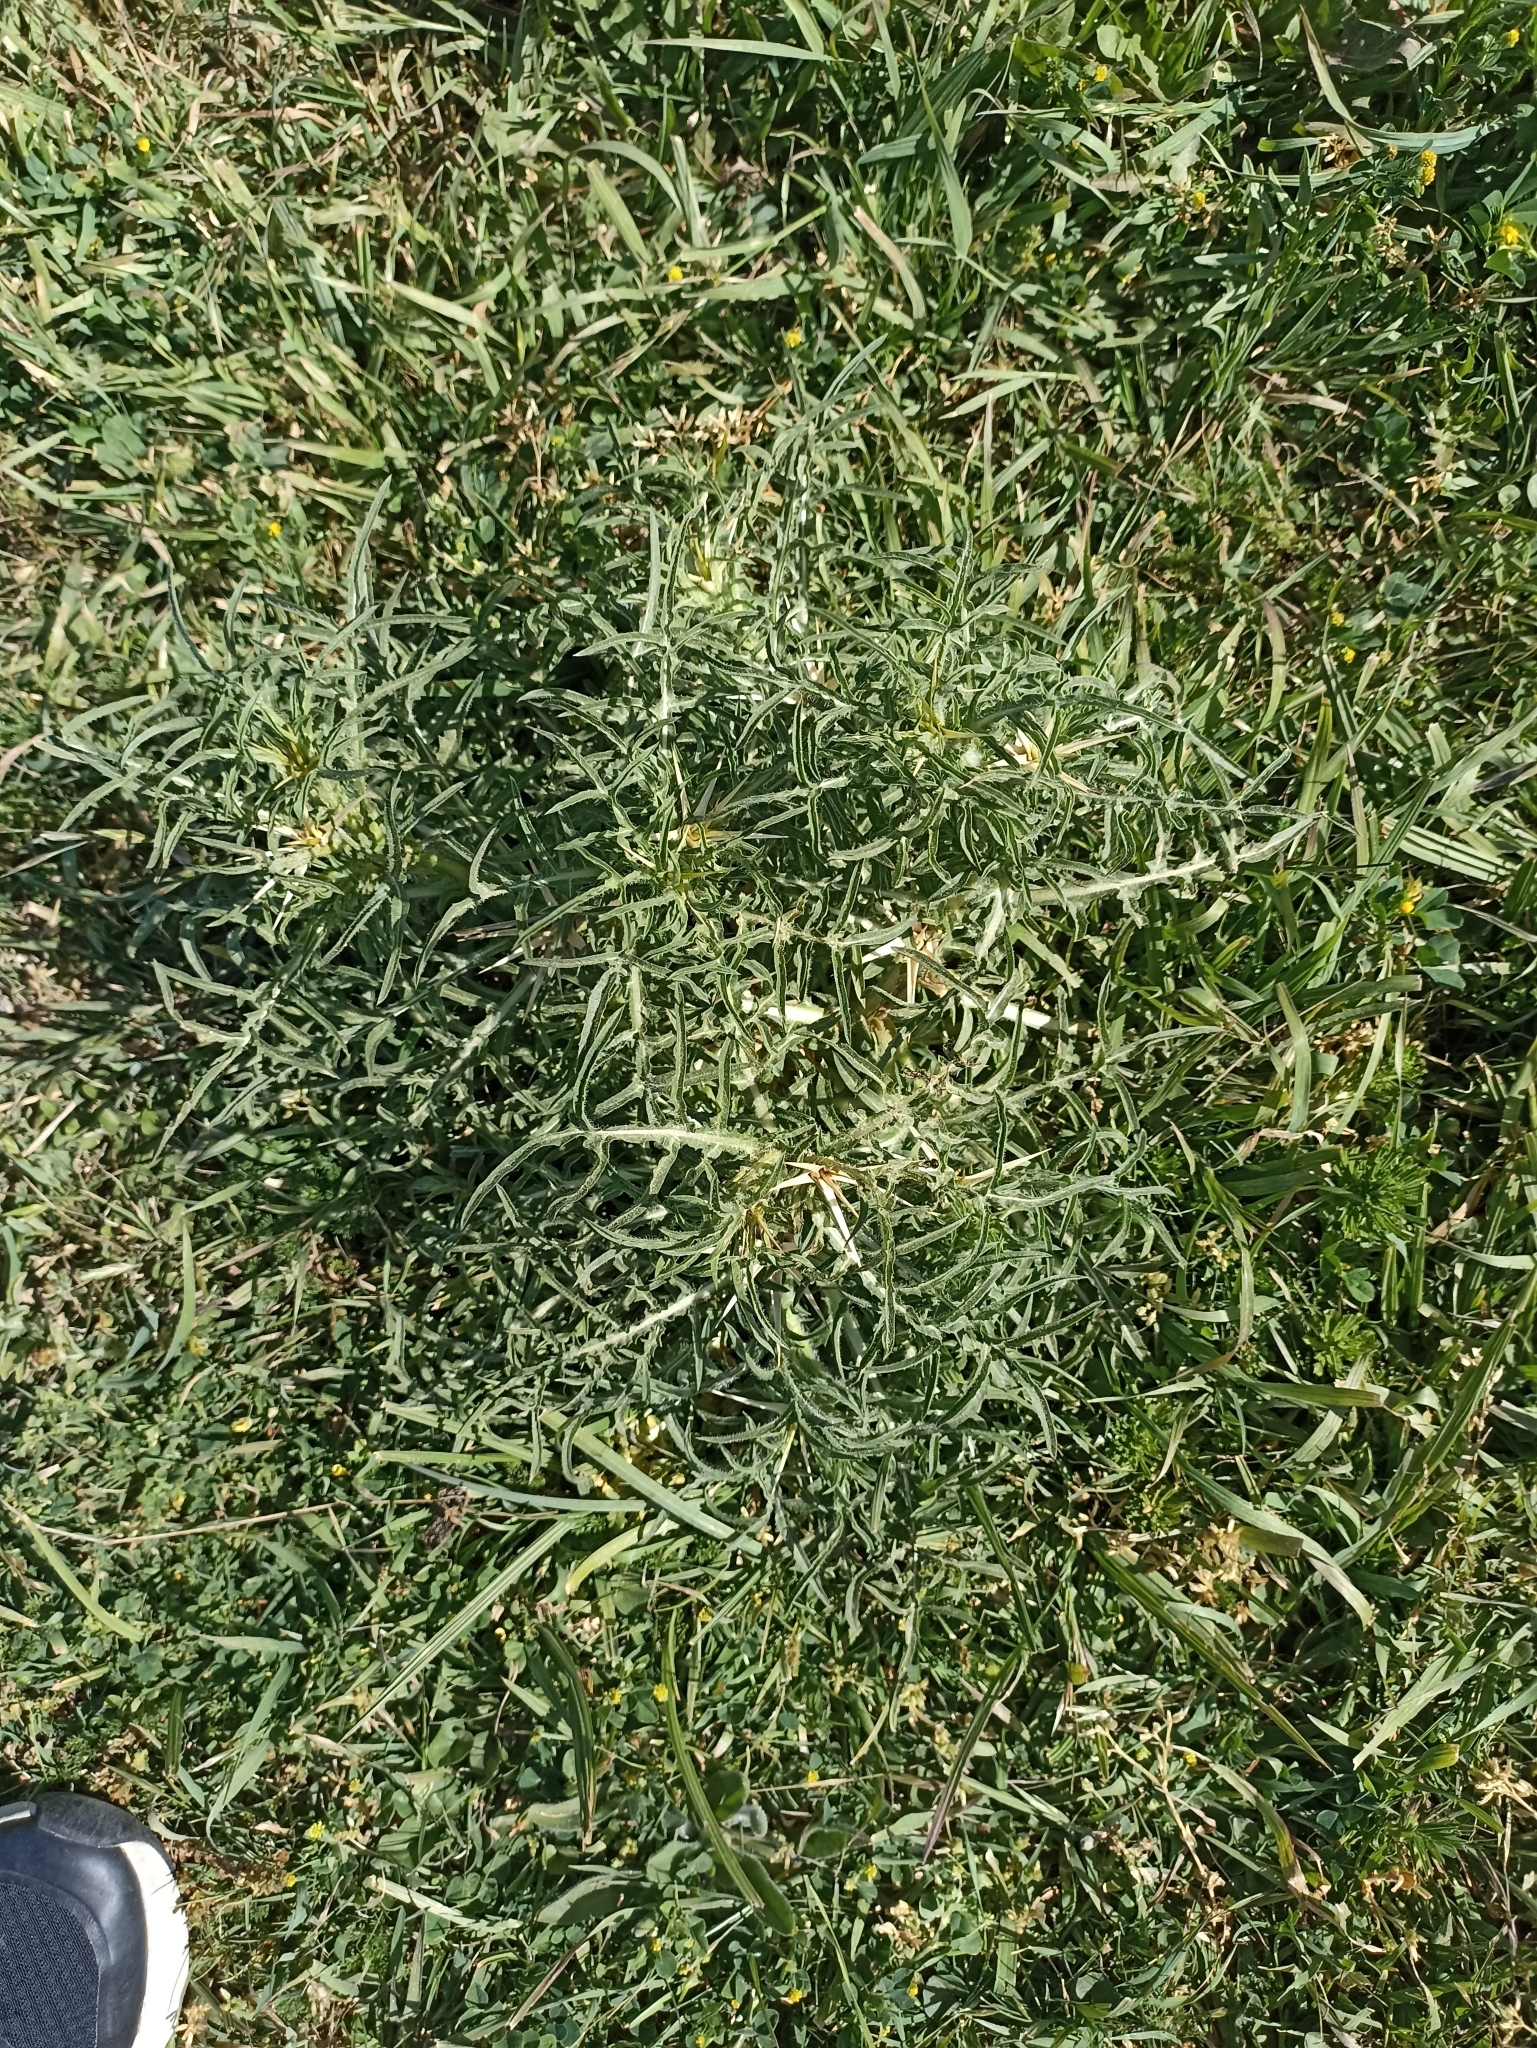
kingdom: Plantae
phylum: Tracheophyta
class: Magnoliopsida
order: Asterales
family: Asteraceae
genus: Centaurea
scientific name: Centaurea calcitrapa
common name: Red star-thistle
